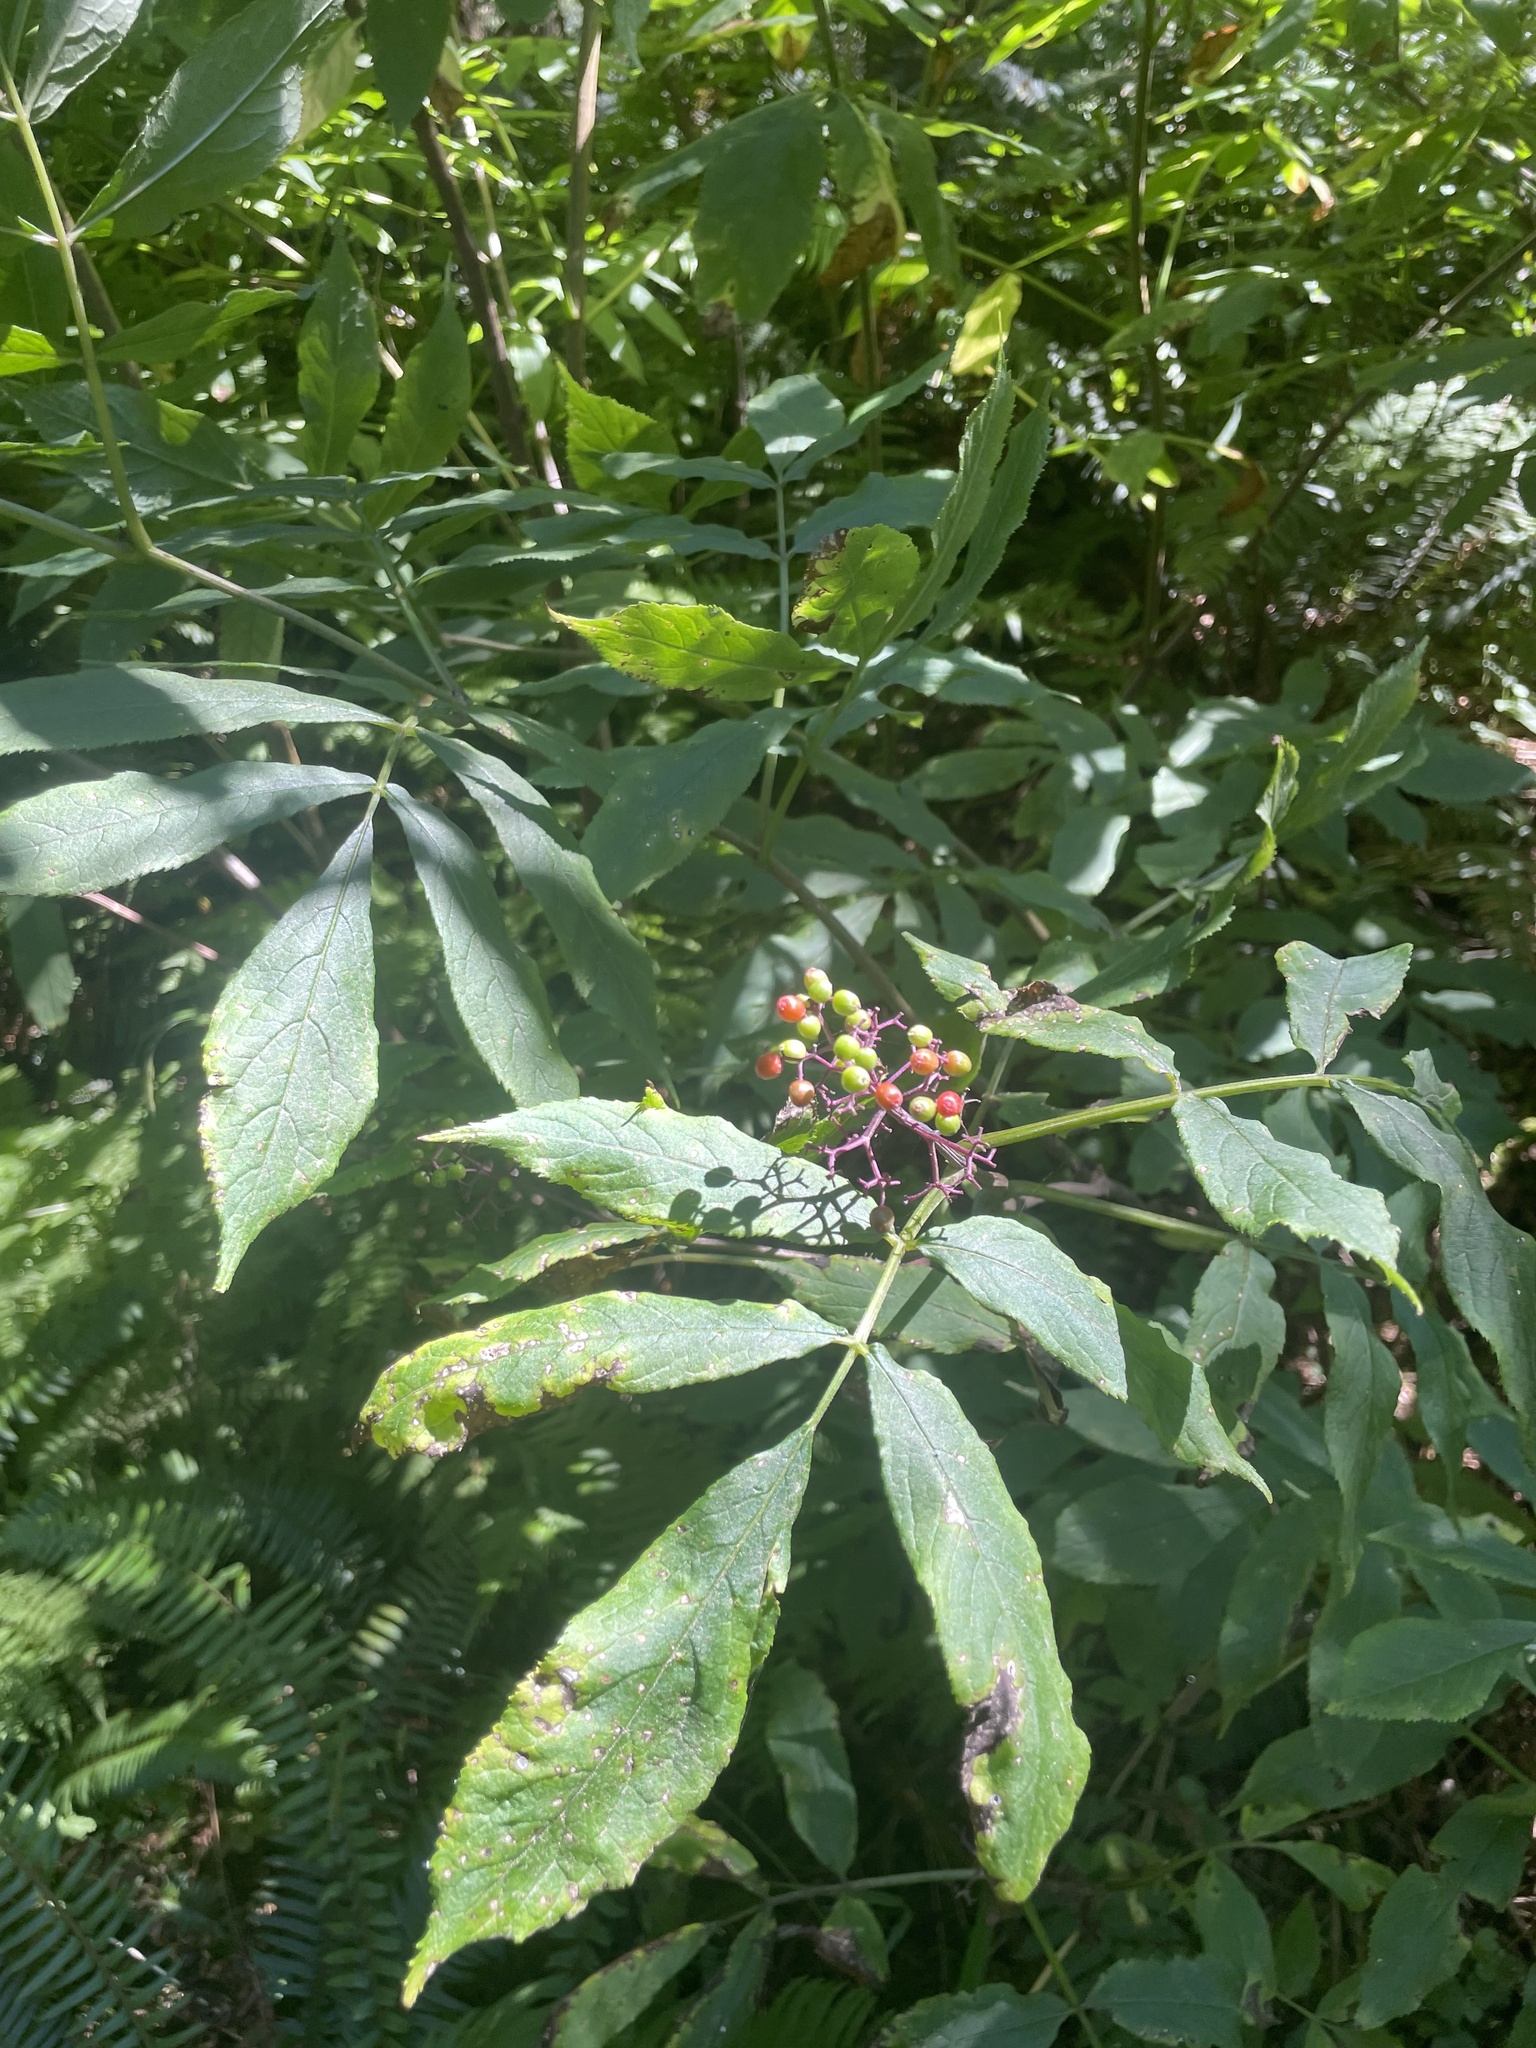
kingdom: Plantae
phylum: Tracheophyta
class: Magnoliopsida
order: Dipsacales
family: Viburnaceae
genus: Sambucus
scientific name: Sambucus racemosa
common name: Red-berried elder
